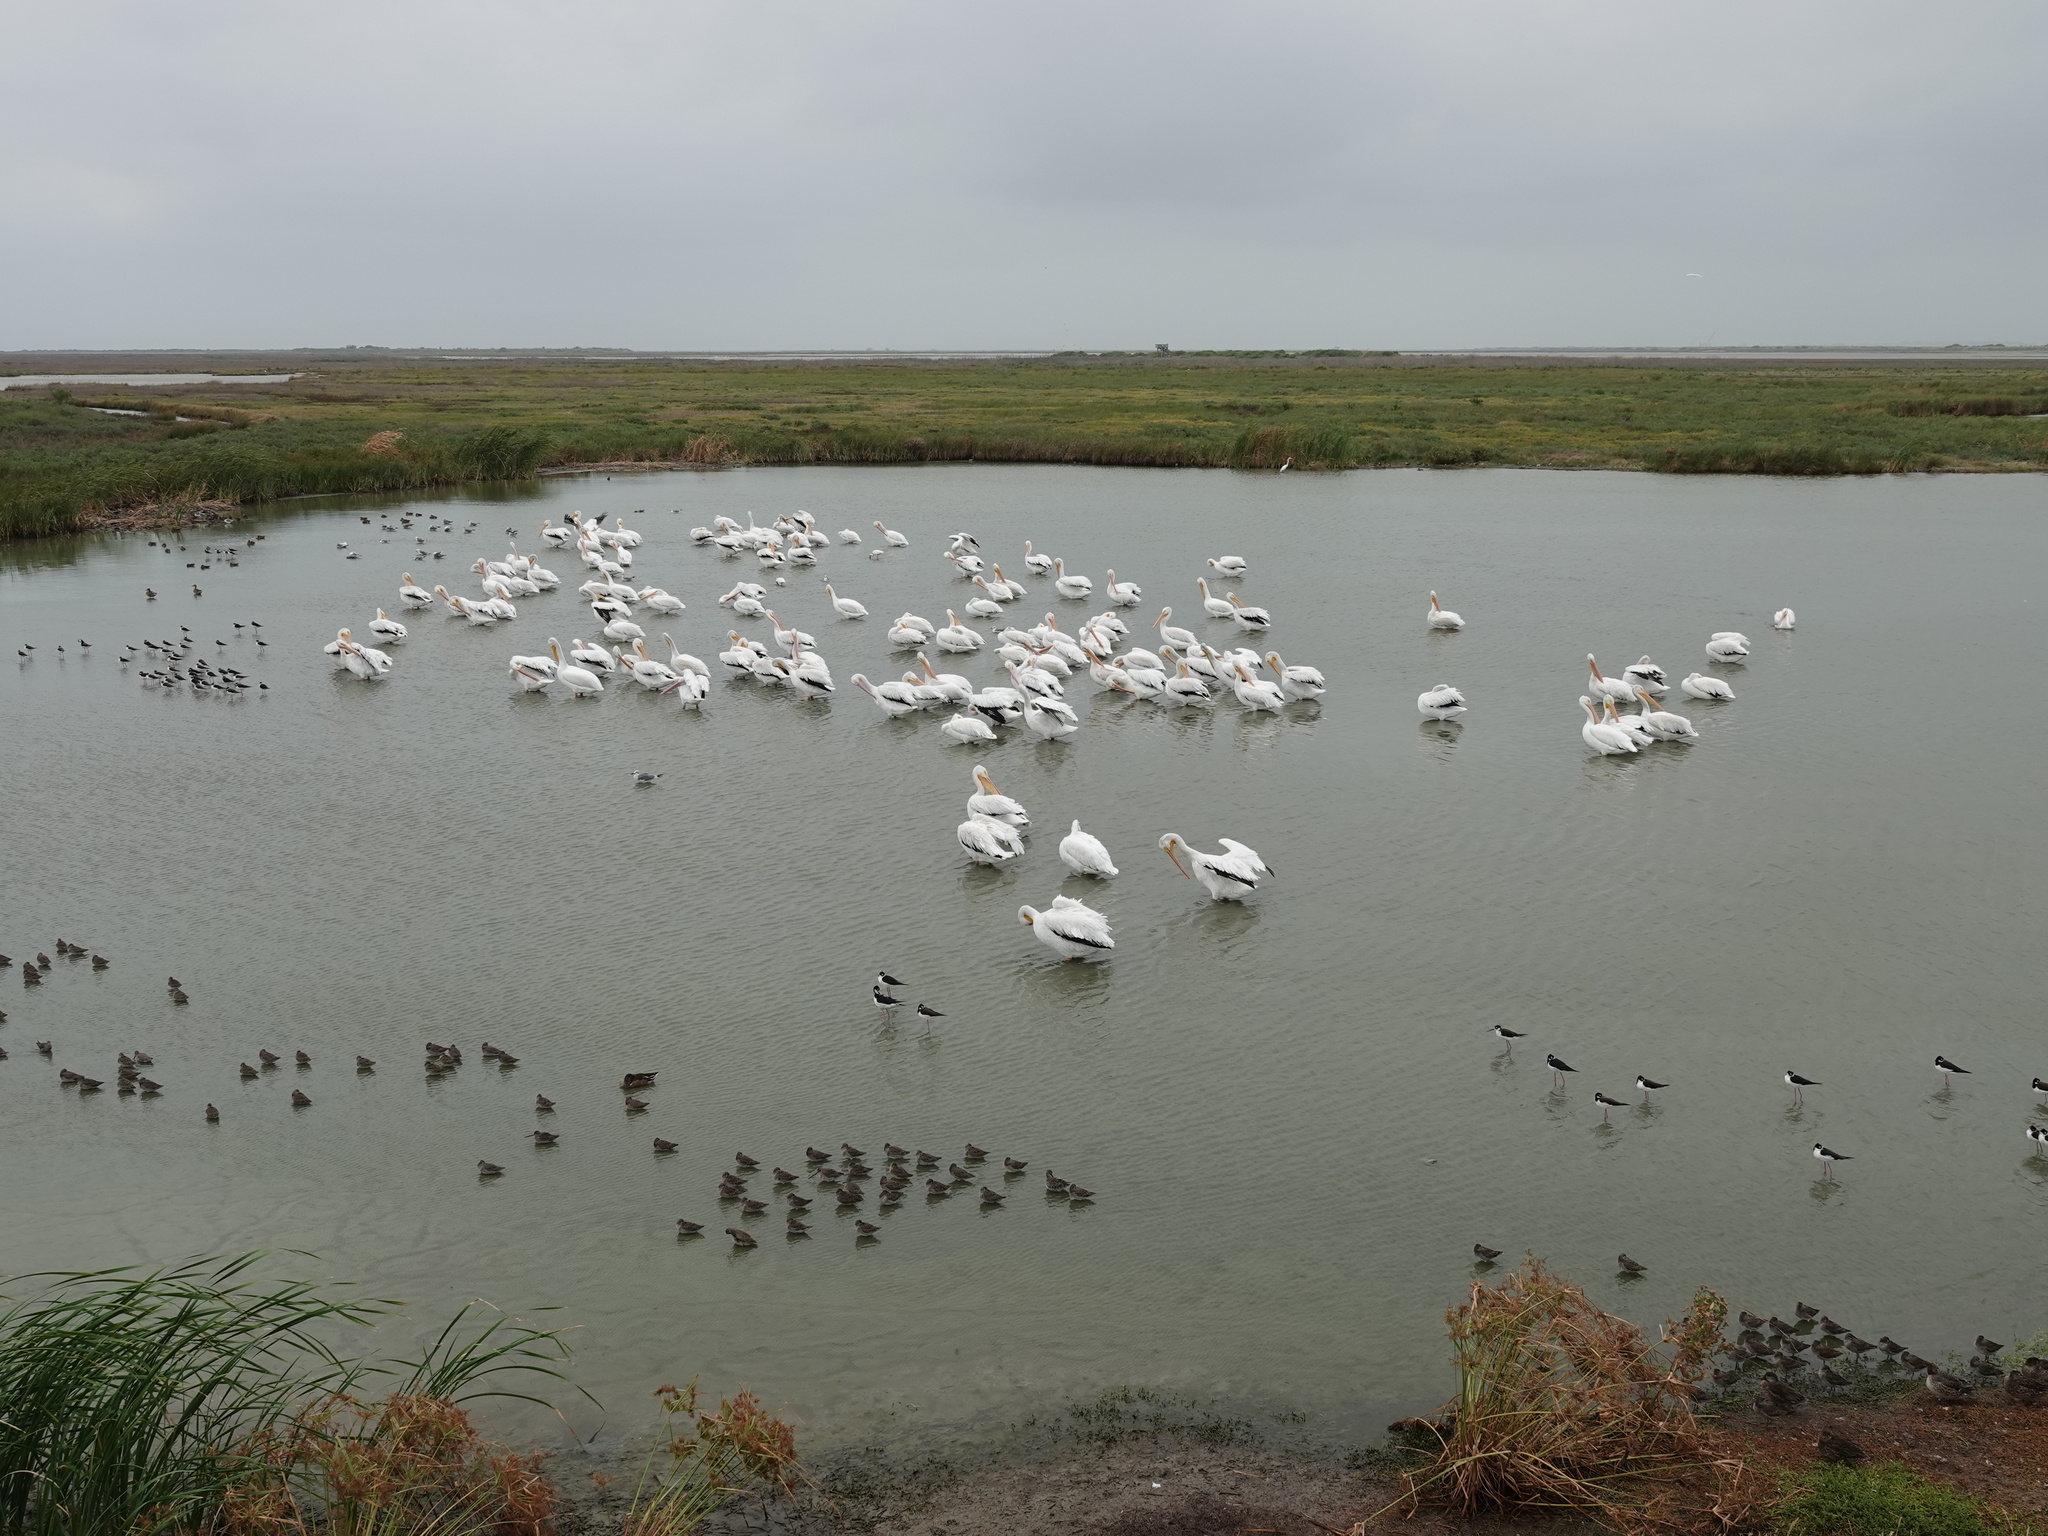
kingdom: Animalia
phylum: Chordata
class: Aves
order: Pelecaniformes
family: Pelecanidae
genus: Pelecanus
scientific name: Pelecanus erythrorhynchos
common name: American white pelican
